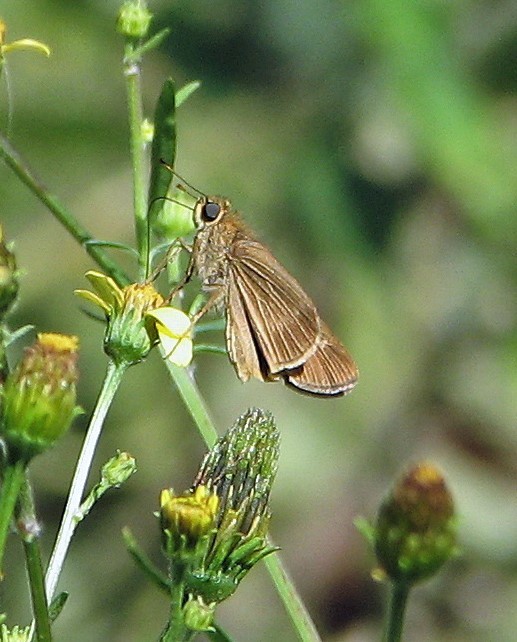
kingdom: Animalia
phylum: Arthropoda
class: Insecta
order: Lepidoptera
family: Hesperiidae
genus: Panoquina
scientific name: Panoquina ocola
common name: Ocola skipper
